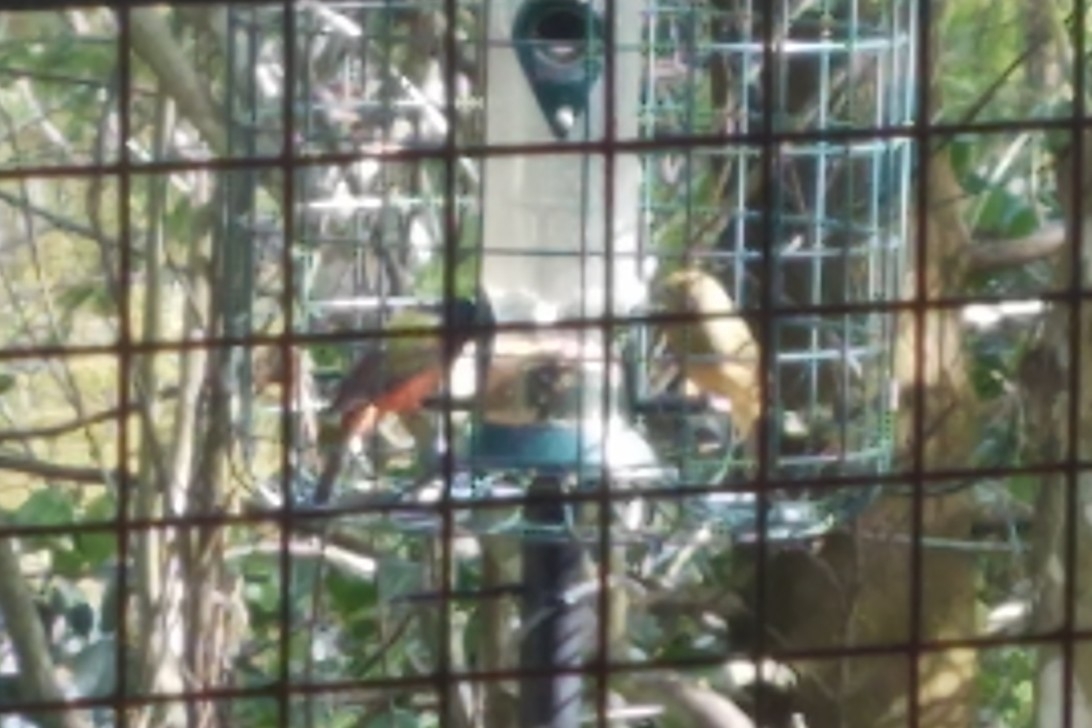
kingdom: Animalia
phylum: Chordata
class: Aves
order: Passeriformes
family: Cardinalidae
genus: Passerina
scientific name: Passerina ciris
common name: Painted bunting
